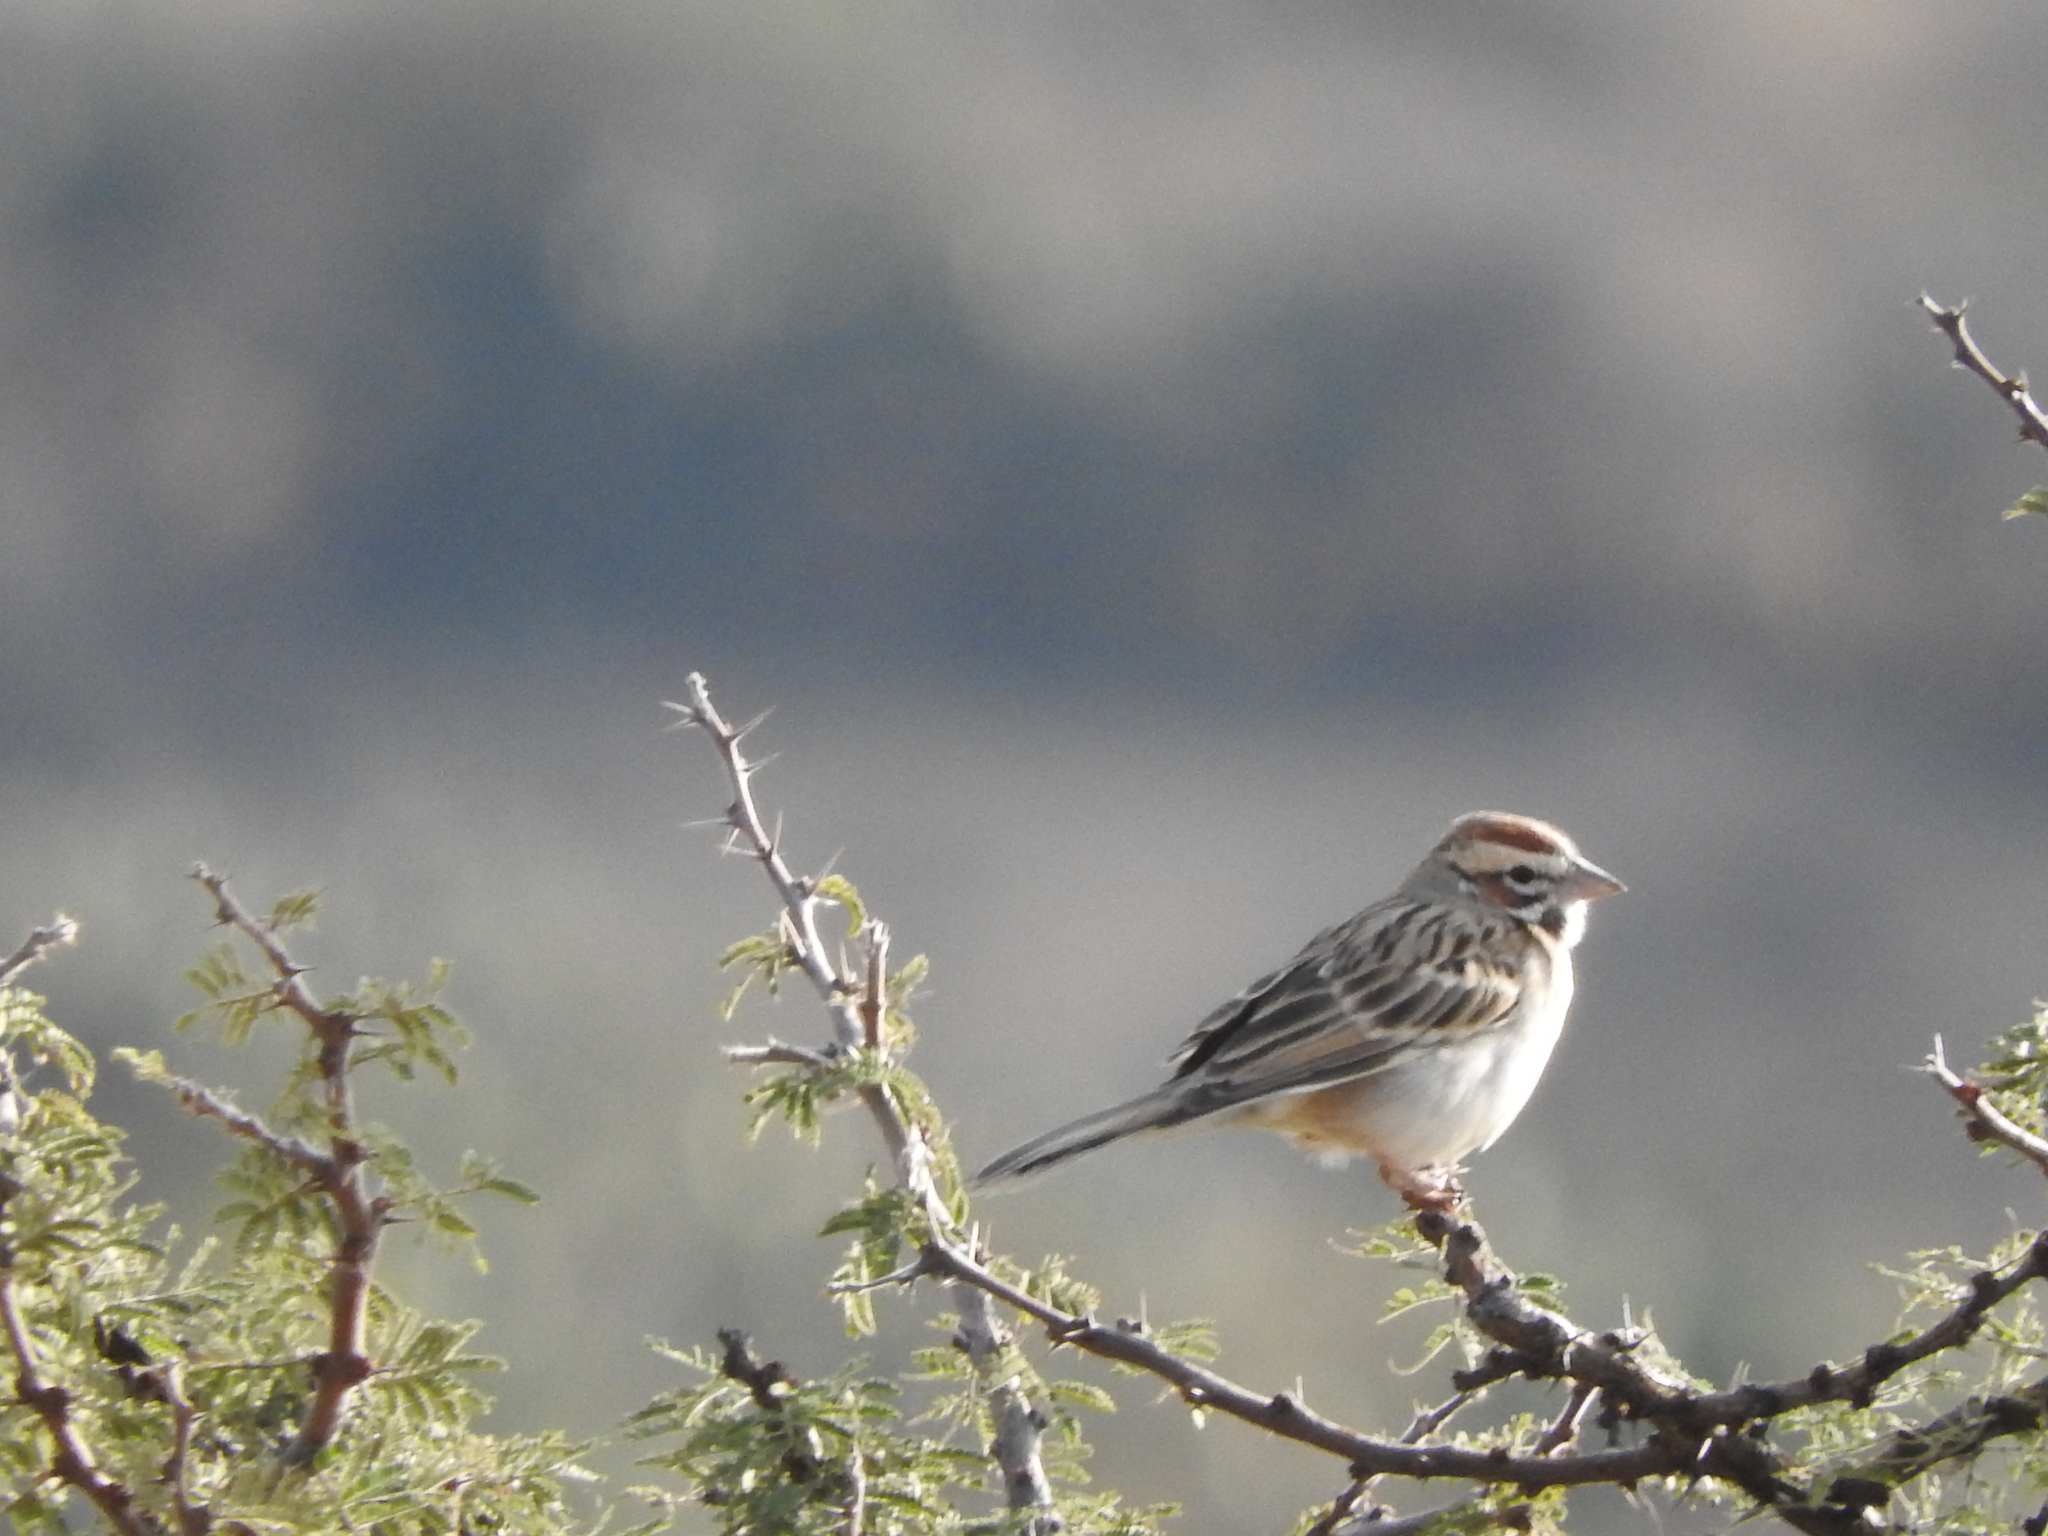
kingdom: Animalia
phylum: Chordata
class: Aves
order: Passeriformes
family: Passerellidae
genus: Chondestes
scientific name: Chondestes grammacus
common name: Lark sparrow
